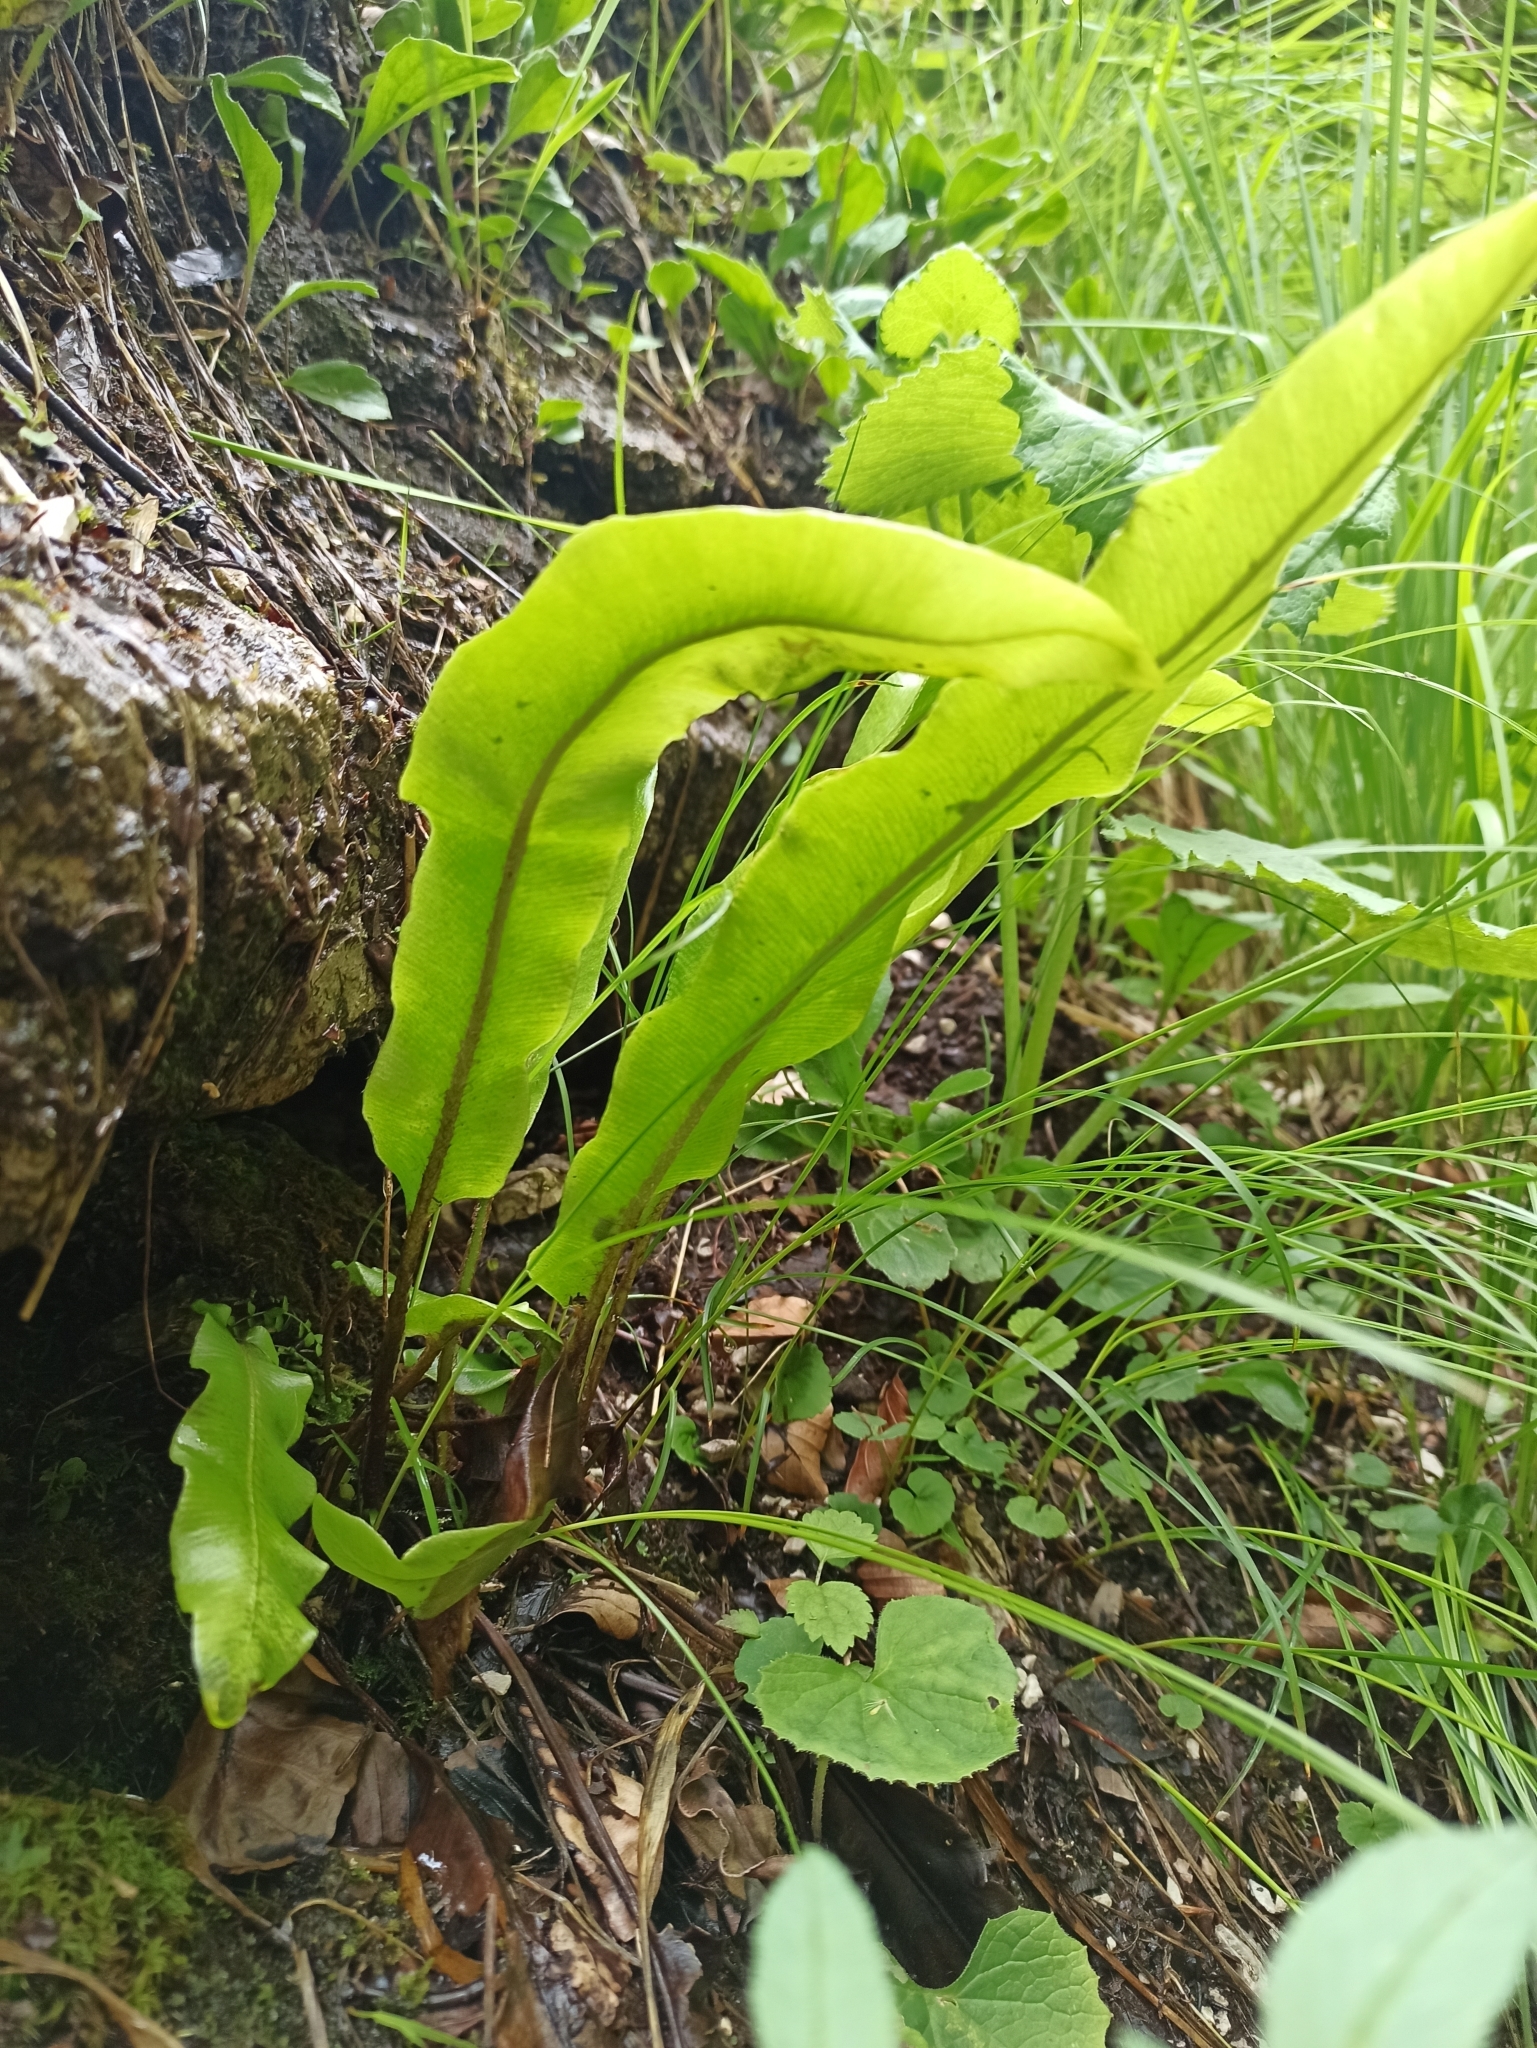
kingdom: Plantae
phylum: Tracheophyta
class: Polypodiopsida
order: Polypodiales
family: Aspleniaceae
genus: Asplenium
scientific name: Asplenium scolopendrium
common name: Hart's-tongue fern
